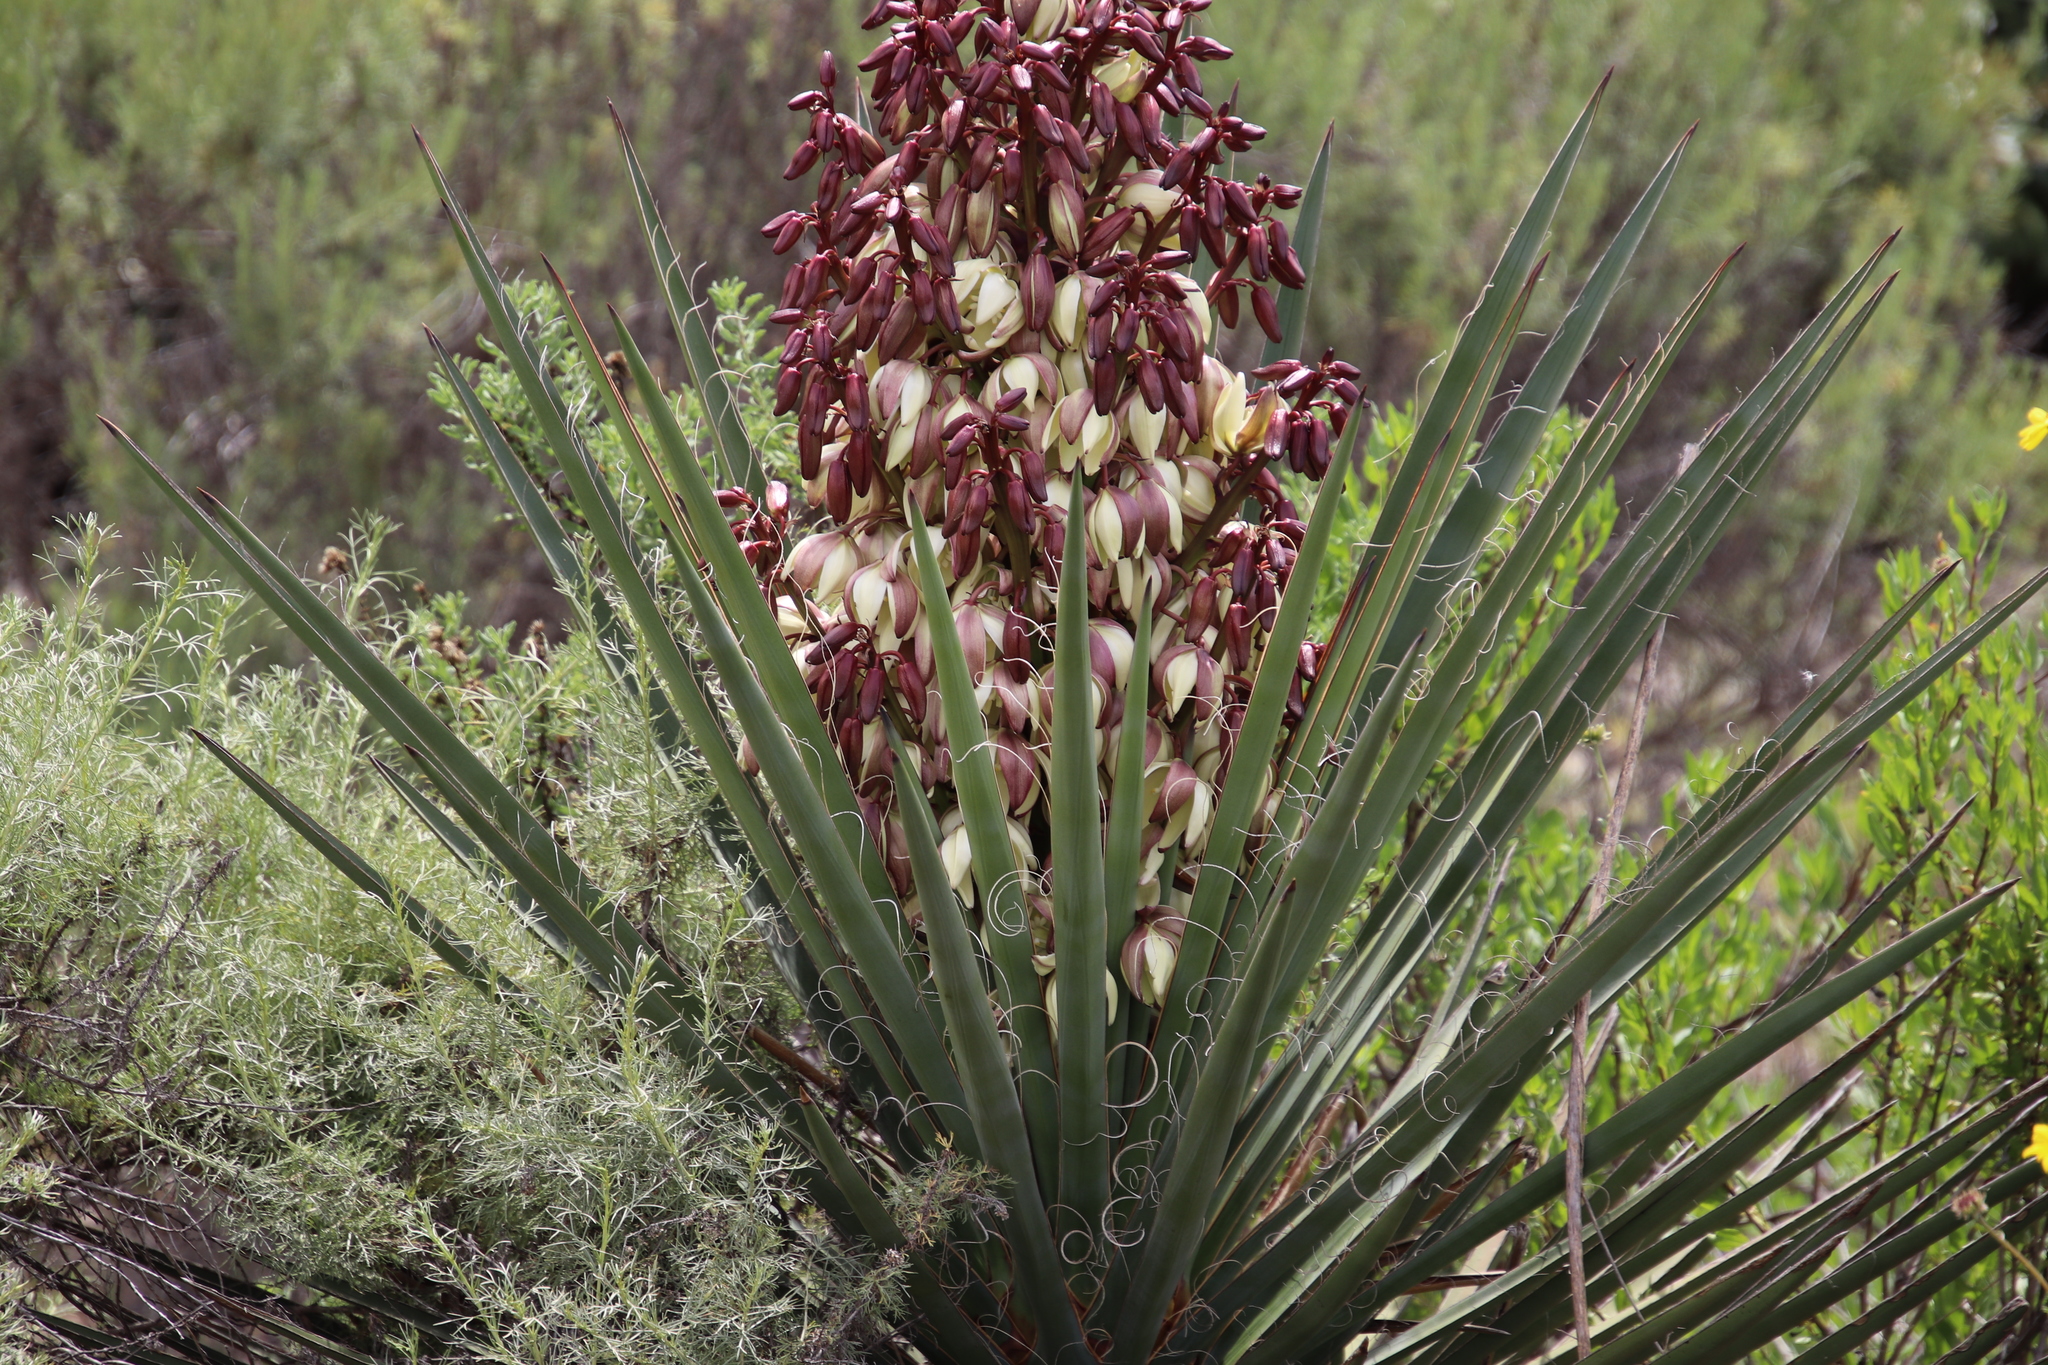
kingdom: Plantae
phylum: Tracheophyta
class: Liliopsida
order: Asparagales
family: Asparagaceae
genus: Yucca
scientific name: Yucca schidigera
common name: Mojave yucca
